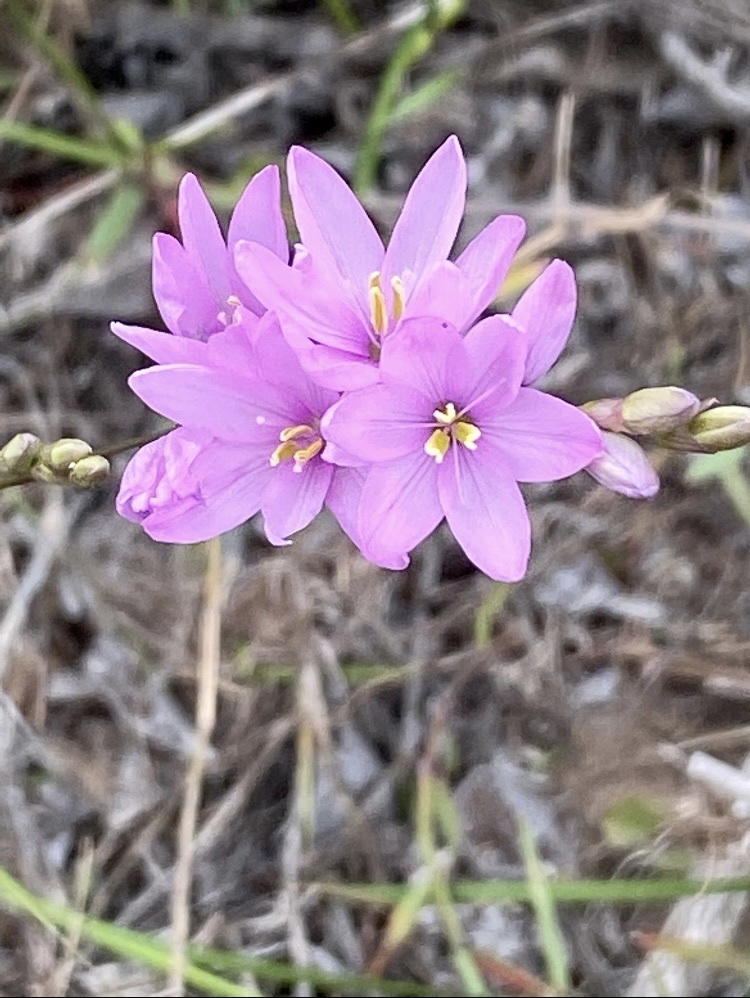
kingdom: Plantae
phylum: Tracheophyta
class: Liliopsida
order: Asparagales
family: Iridaceae
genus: Ixia
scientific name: Ixia flexuosa
